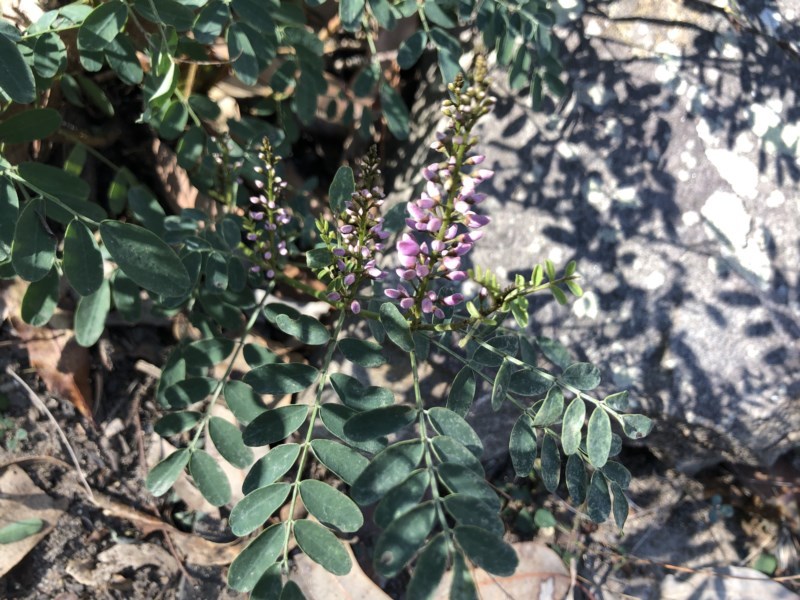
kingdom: Plantae
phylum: Tracheophyta
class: Magnoliopsida
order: Fabales
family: Fabaceae
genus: Indigofera
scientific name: Indigofera australis
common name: Australian indigo
